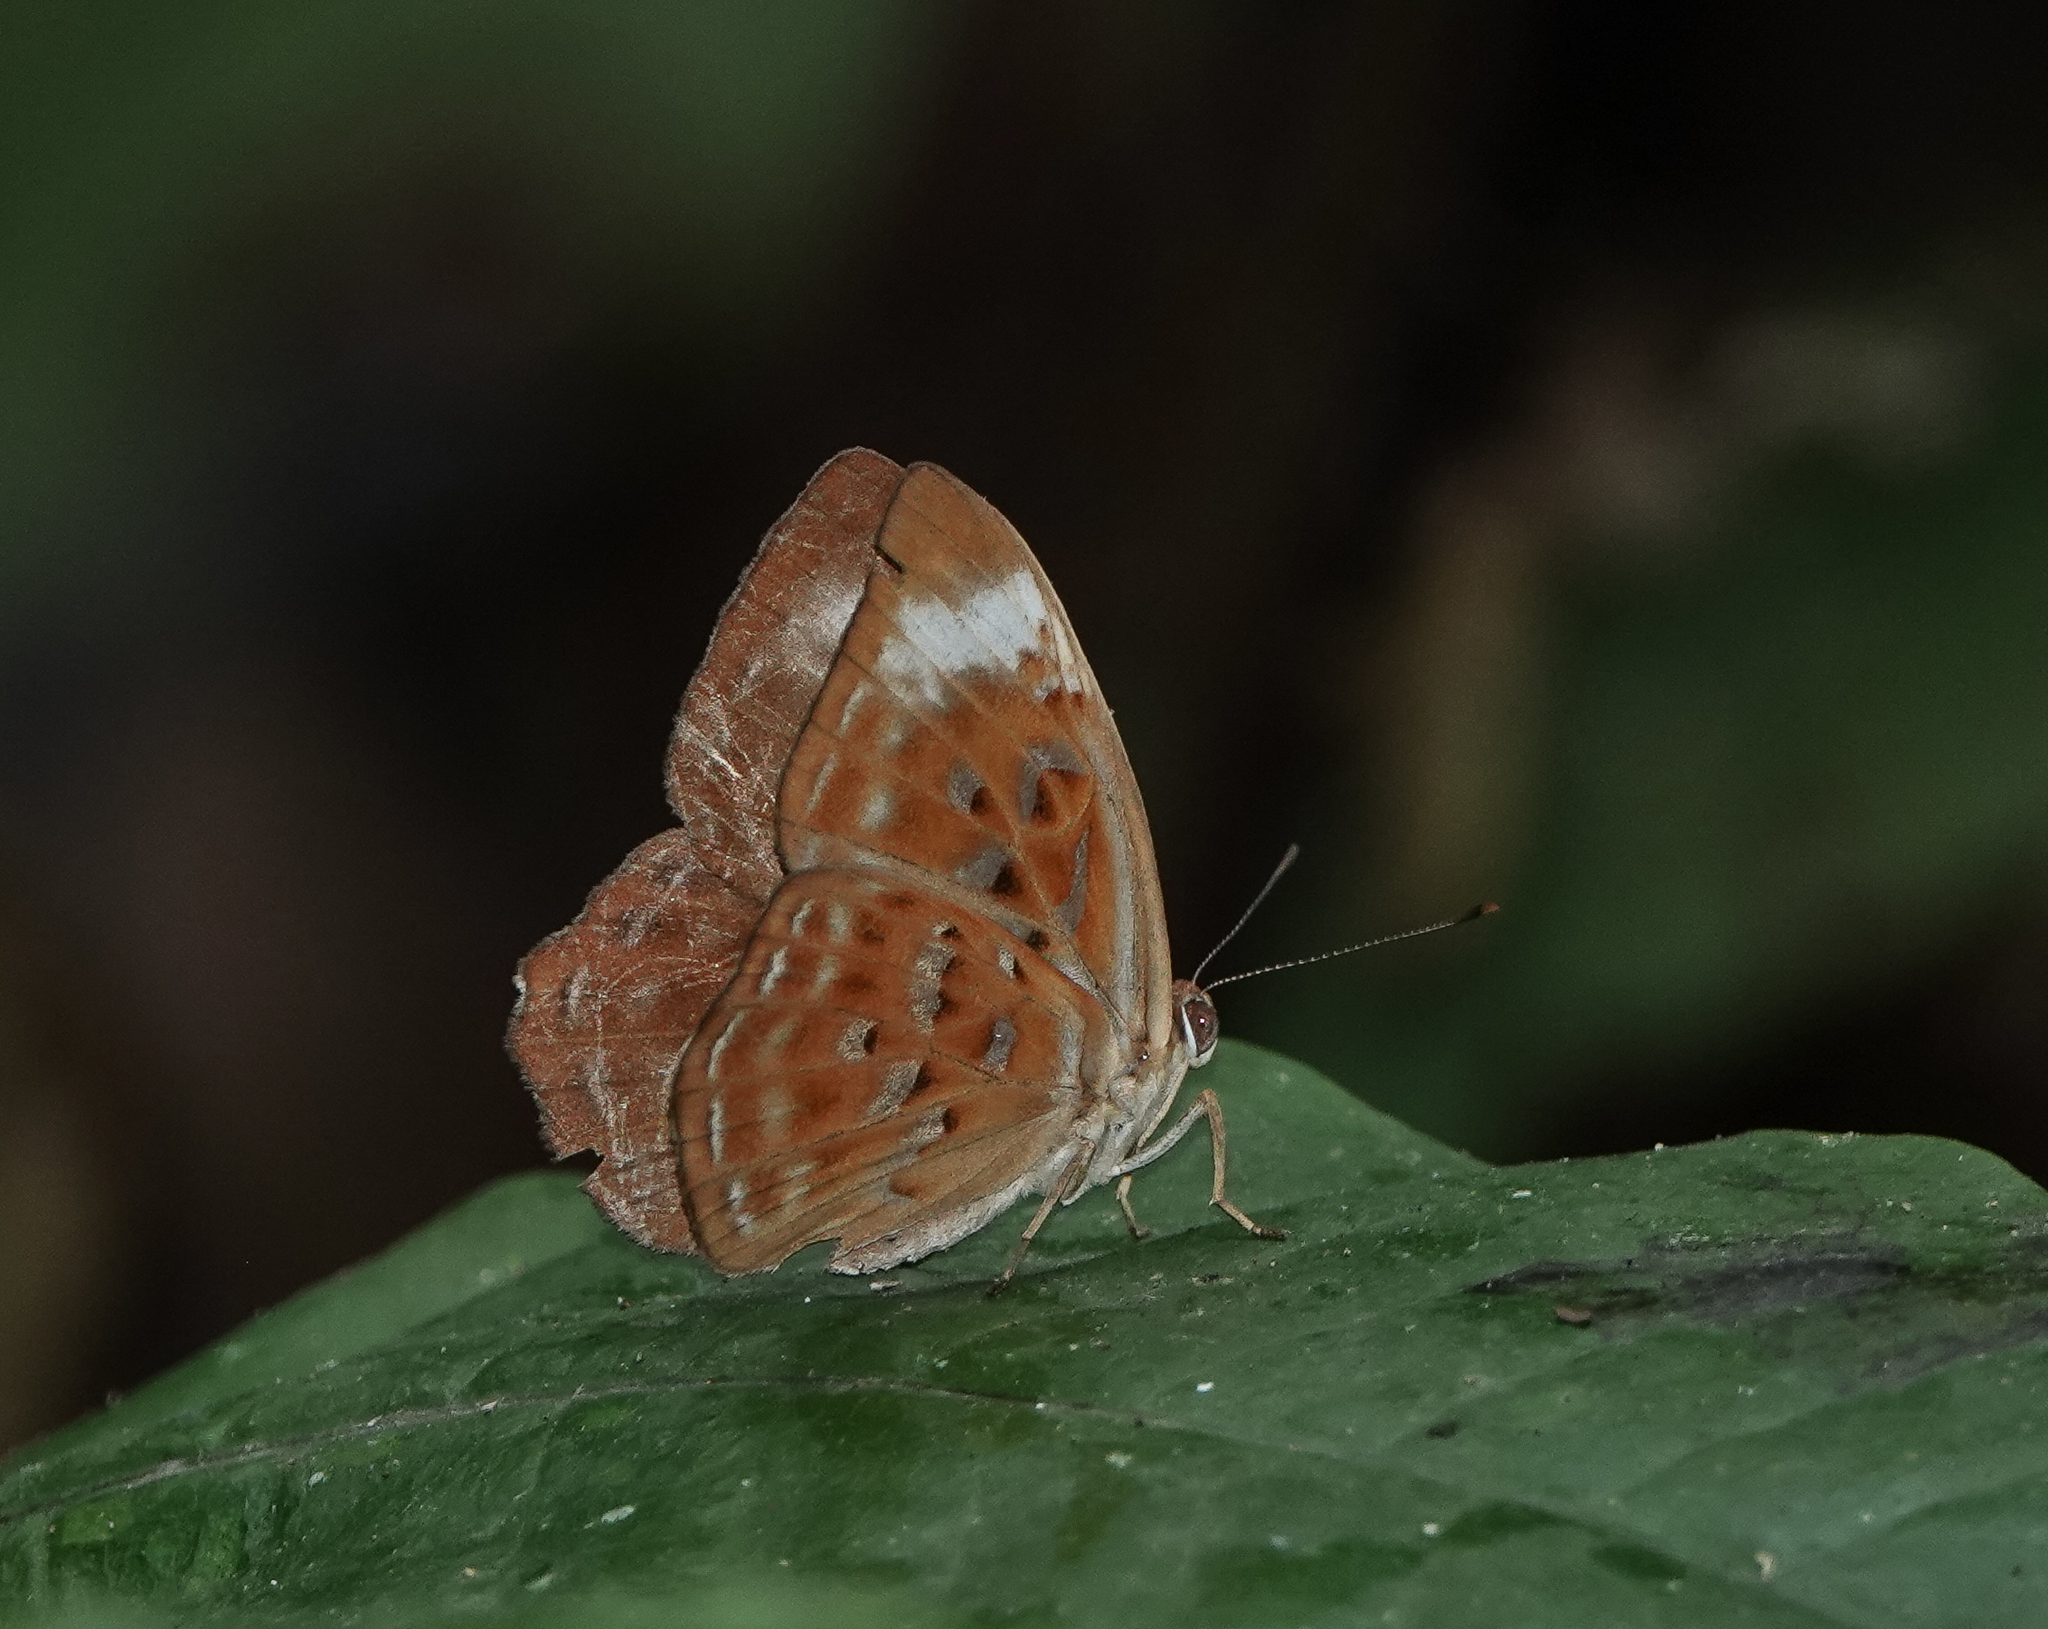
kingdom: Animalia
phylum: Arthropoda
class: Insecta
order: Lepidoptera
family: Erebidae
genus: Dysschema
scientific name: Dysschema
